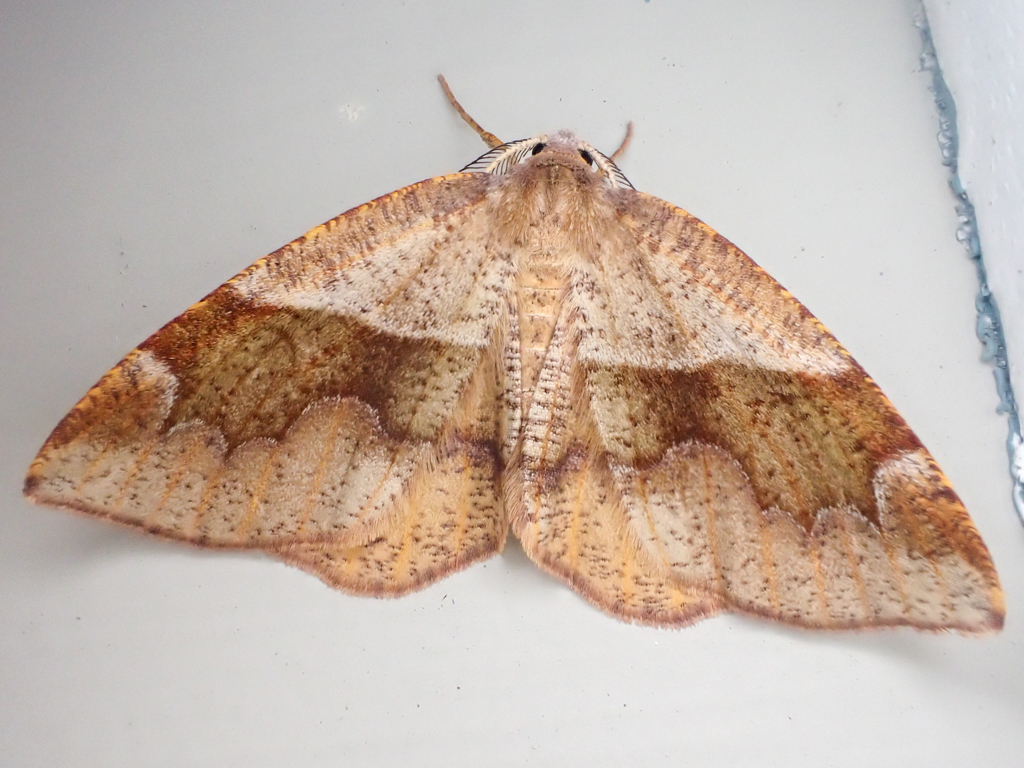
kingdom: Animalia
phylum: Arthropoda
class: Insecta
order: Lepidoptera
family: Geometridae
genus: Plagodis
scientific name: Plagodis pulveraria
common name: Barred umber
